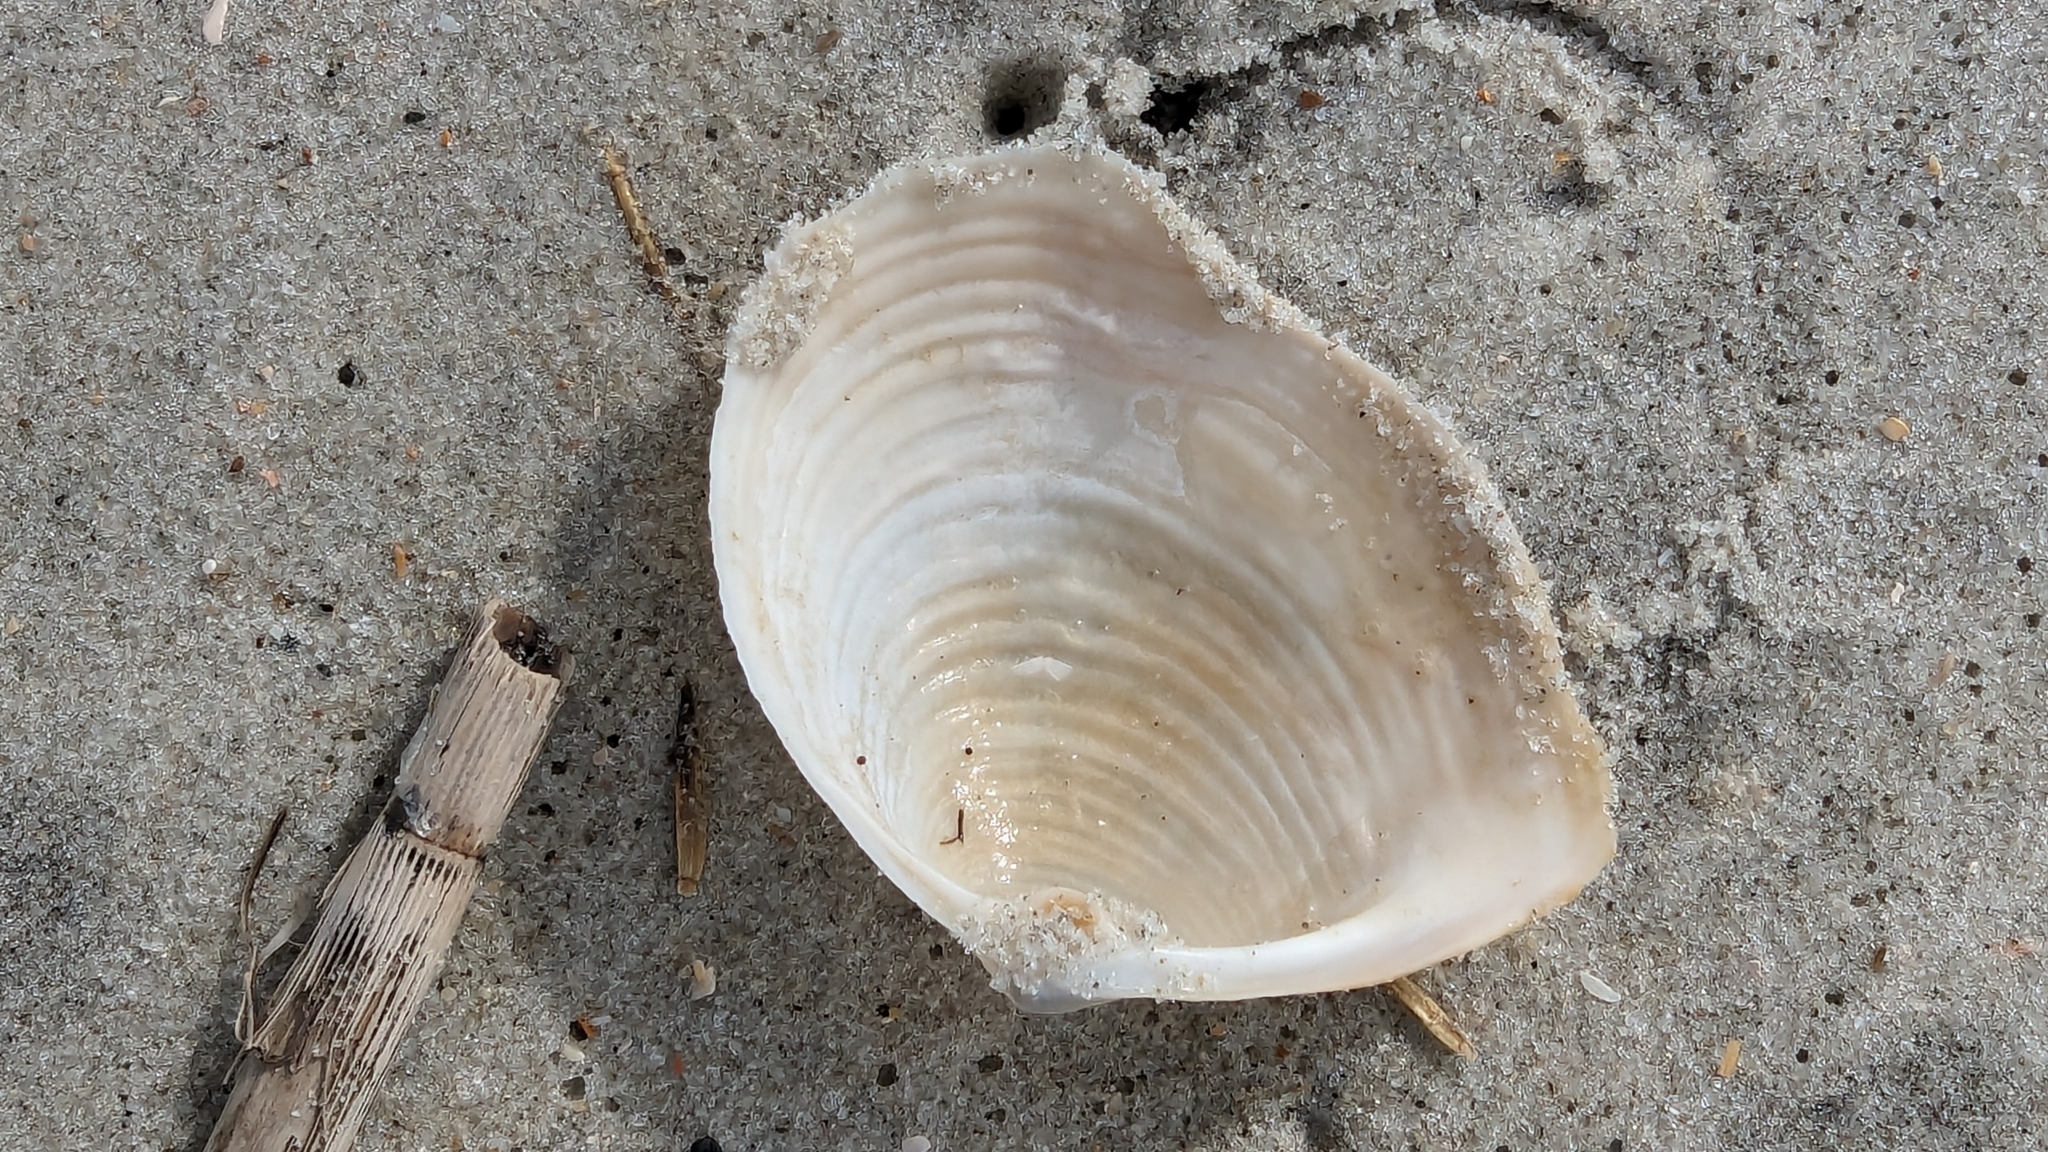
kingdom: Animalia
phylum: Mollusca
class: Bivalvia
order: Venerida
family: Anatinellidae
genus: Raeta
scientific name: Raeta plicatella
